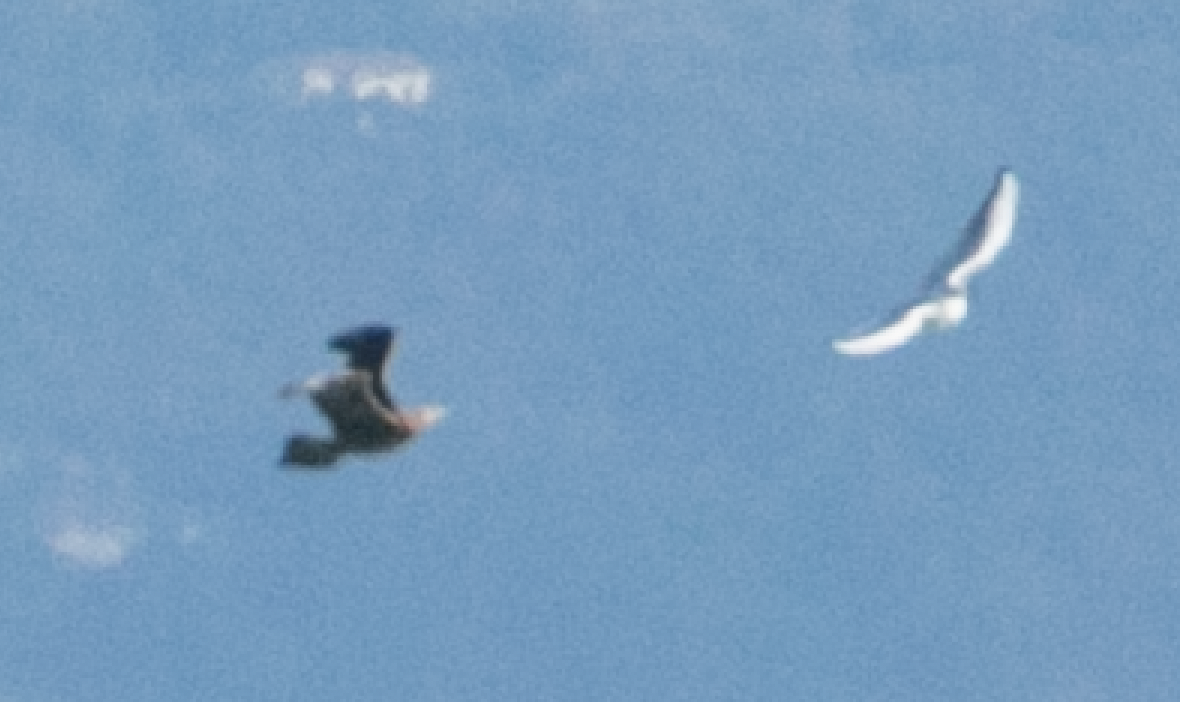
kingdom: Animalia
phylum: Chordata
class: Aves
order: Charadriiformes
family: Stercorariidae
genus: Stercorarius
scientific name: Stercorarius parasiticus
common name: Parasitic jaeger
